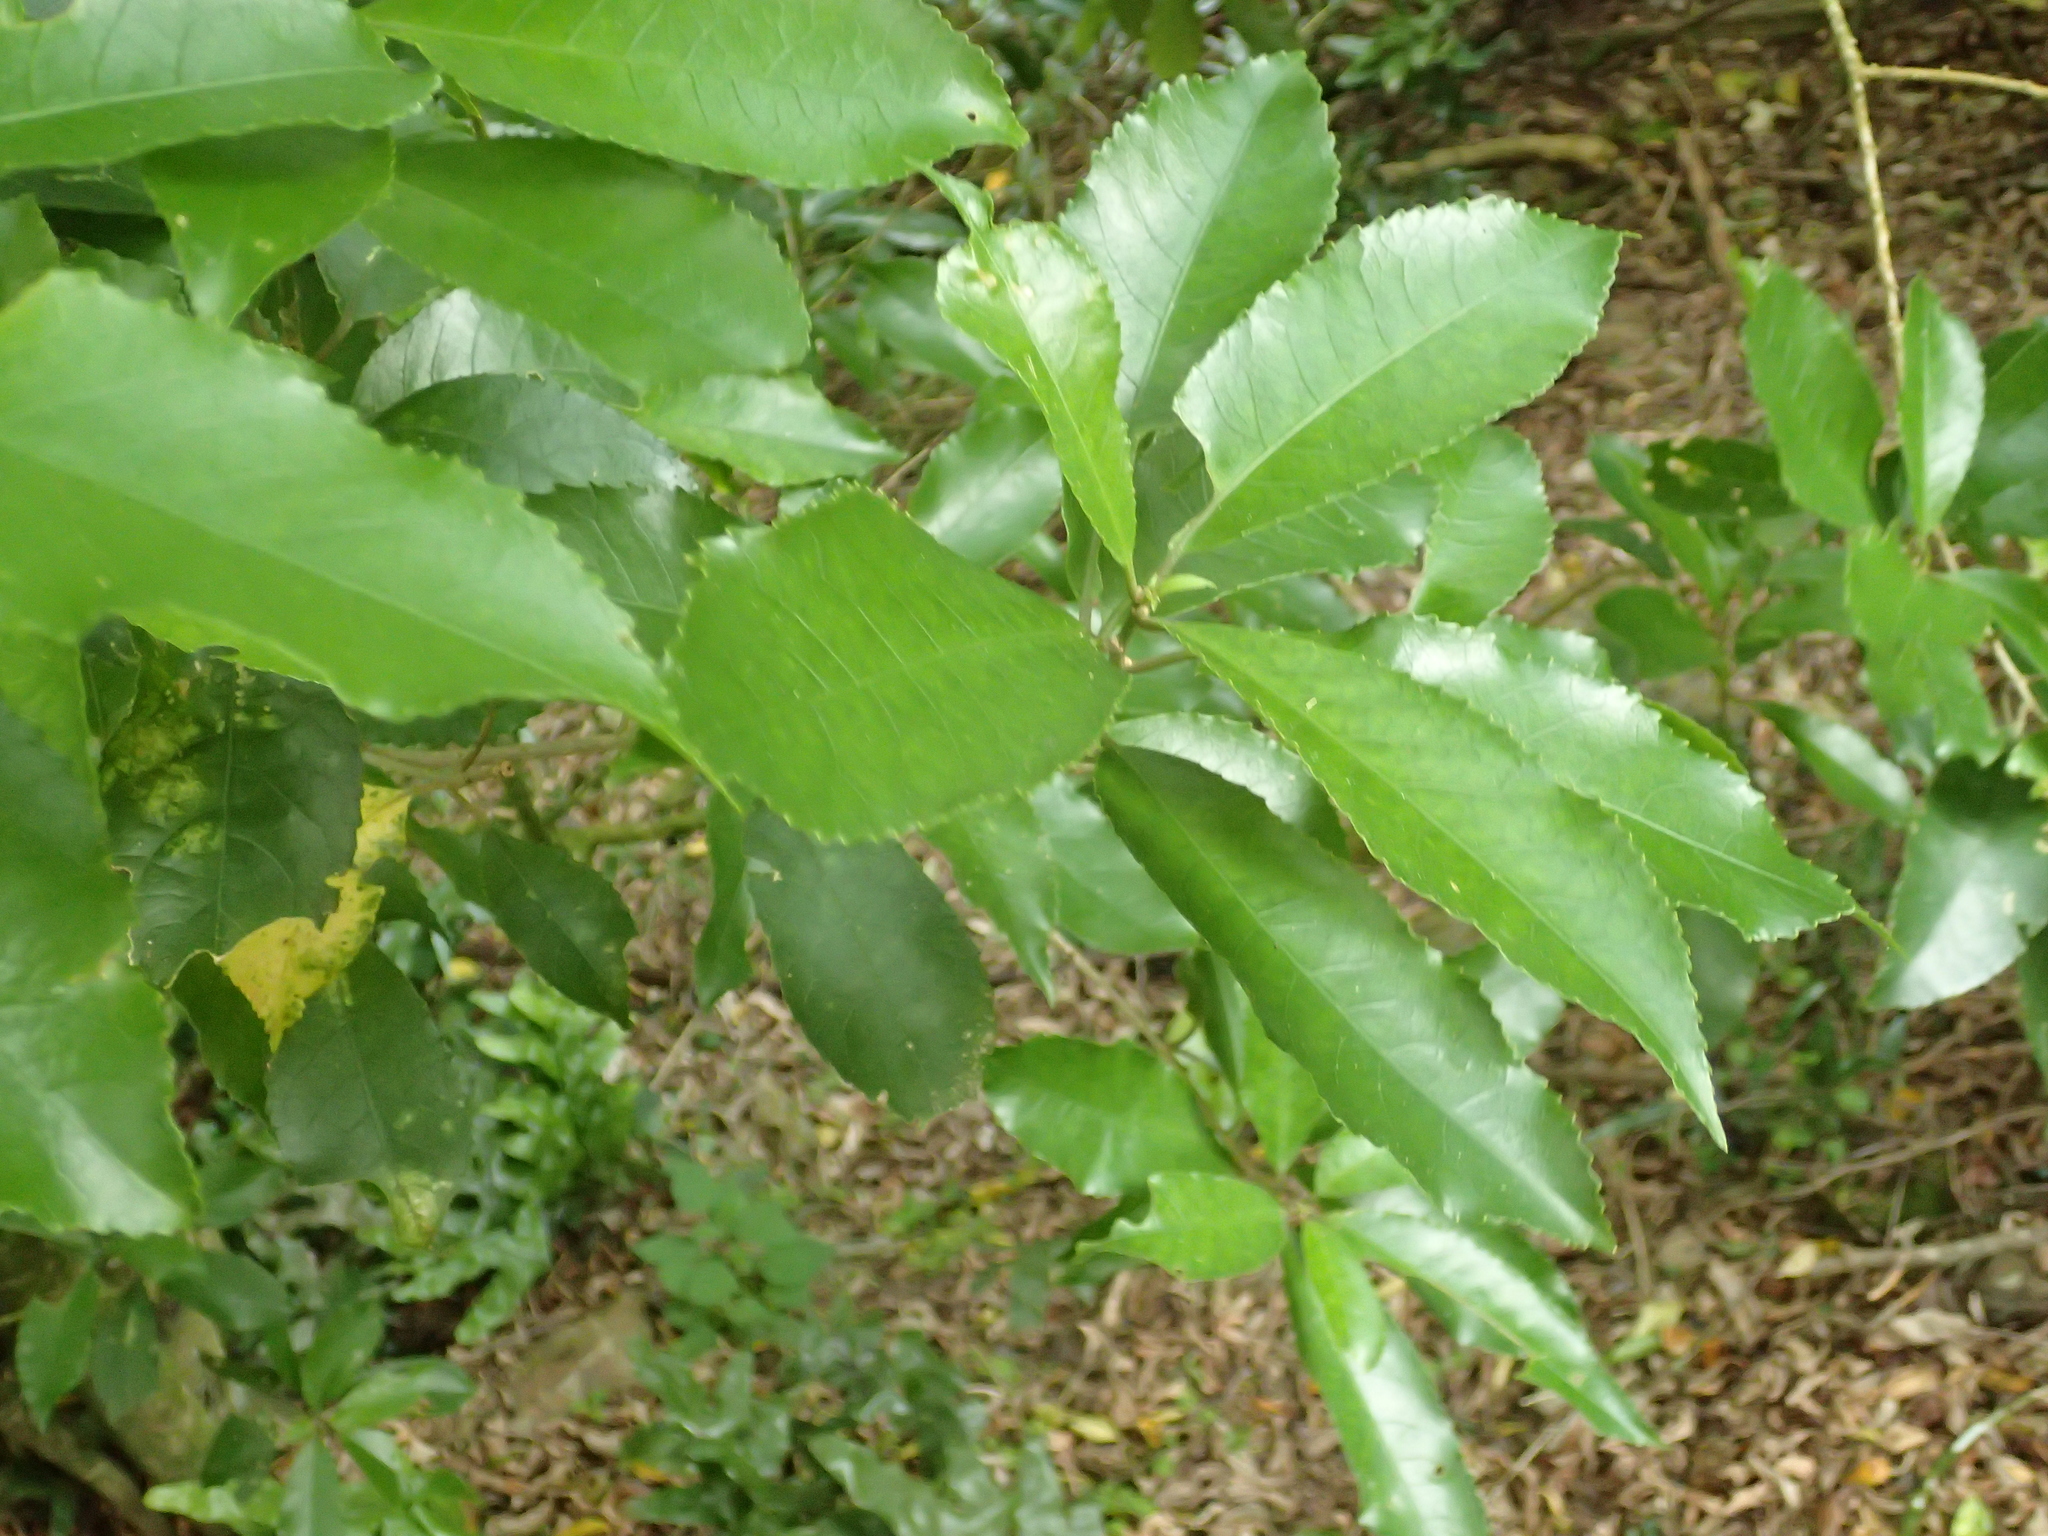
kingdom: Plantae
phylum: Tracheophyta
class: Magnoliopsida
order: Malpighiales
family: Violaceae
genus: Melicytus
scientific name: Melicytus ramiflorus
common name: Mahoe
